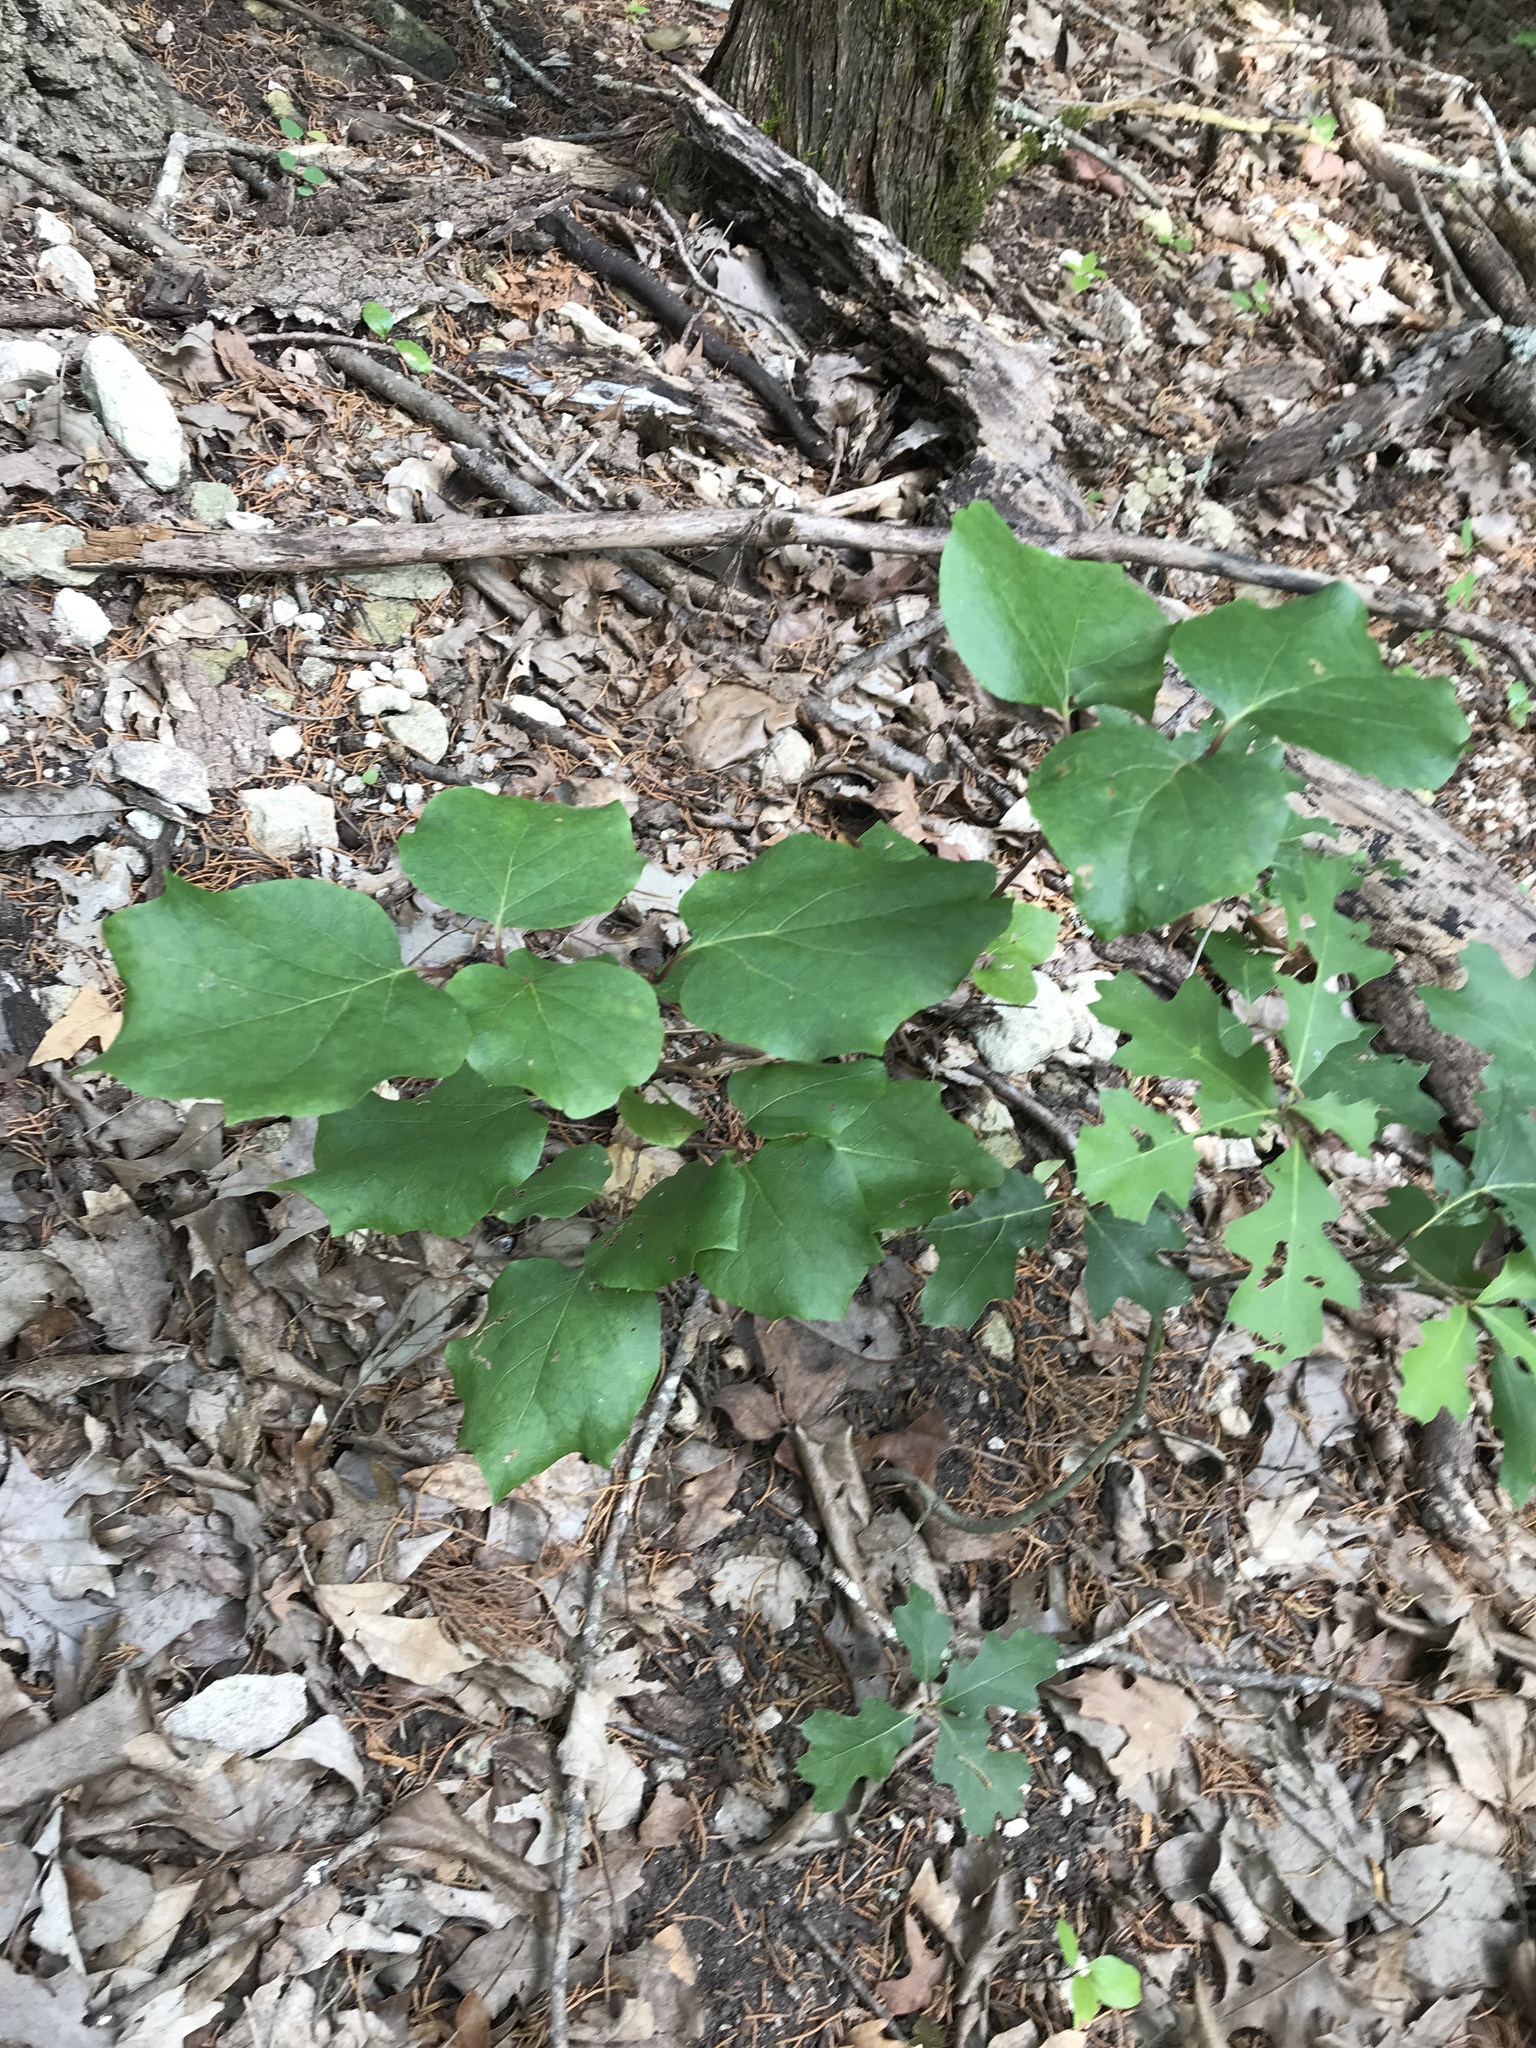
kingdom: Plantae
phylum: Tracheophyta
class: Magnoliopsida
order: Fabales
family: Fabaceae
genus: Cercis
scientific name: Cercis canadensis
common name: Eastern redbud
